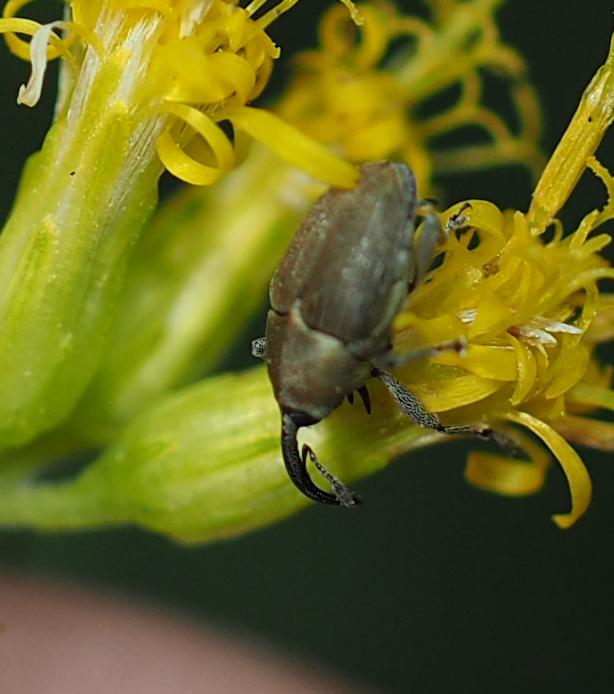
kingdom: Animalia
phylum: Arthropoda
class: Insecta
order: Coleoptera
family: Curculionidae
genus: Geraeus
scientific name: Geraeus picumnus
